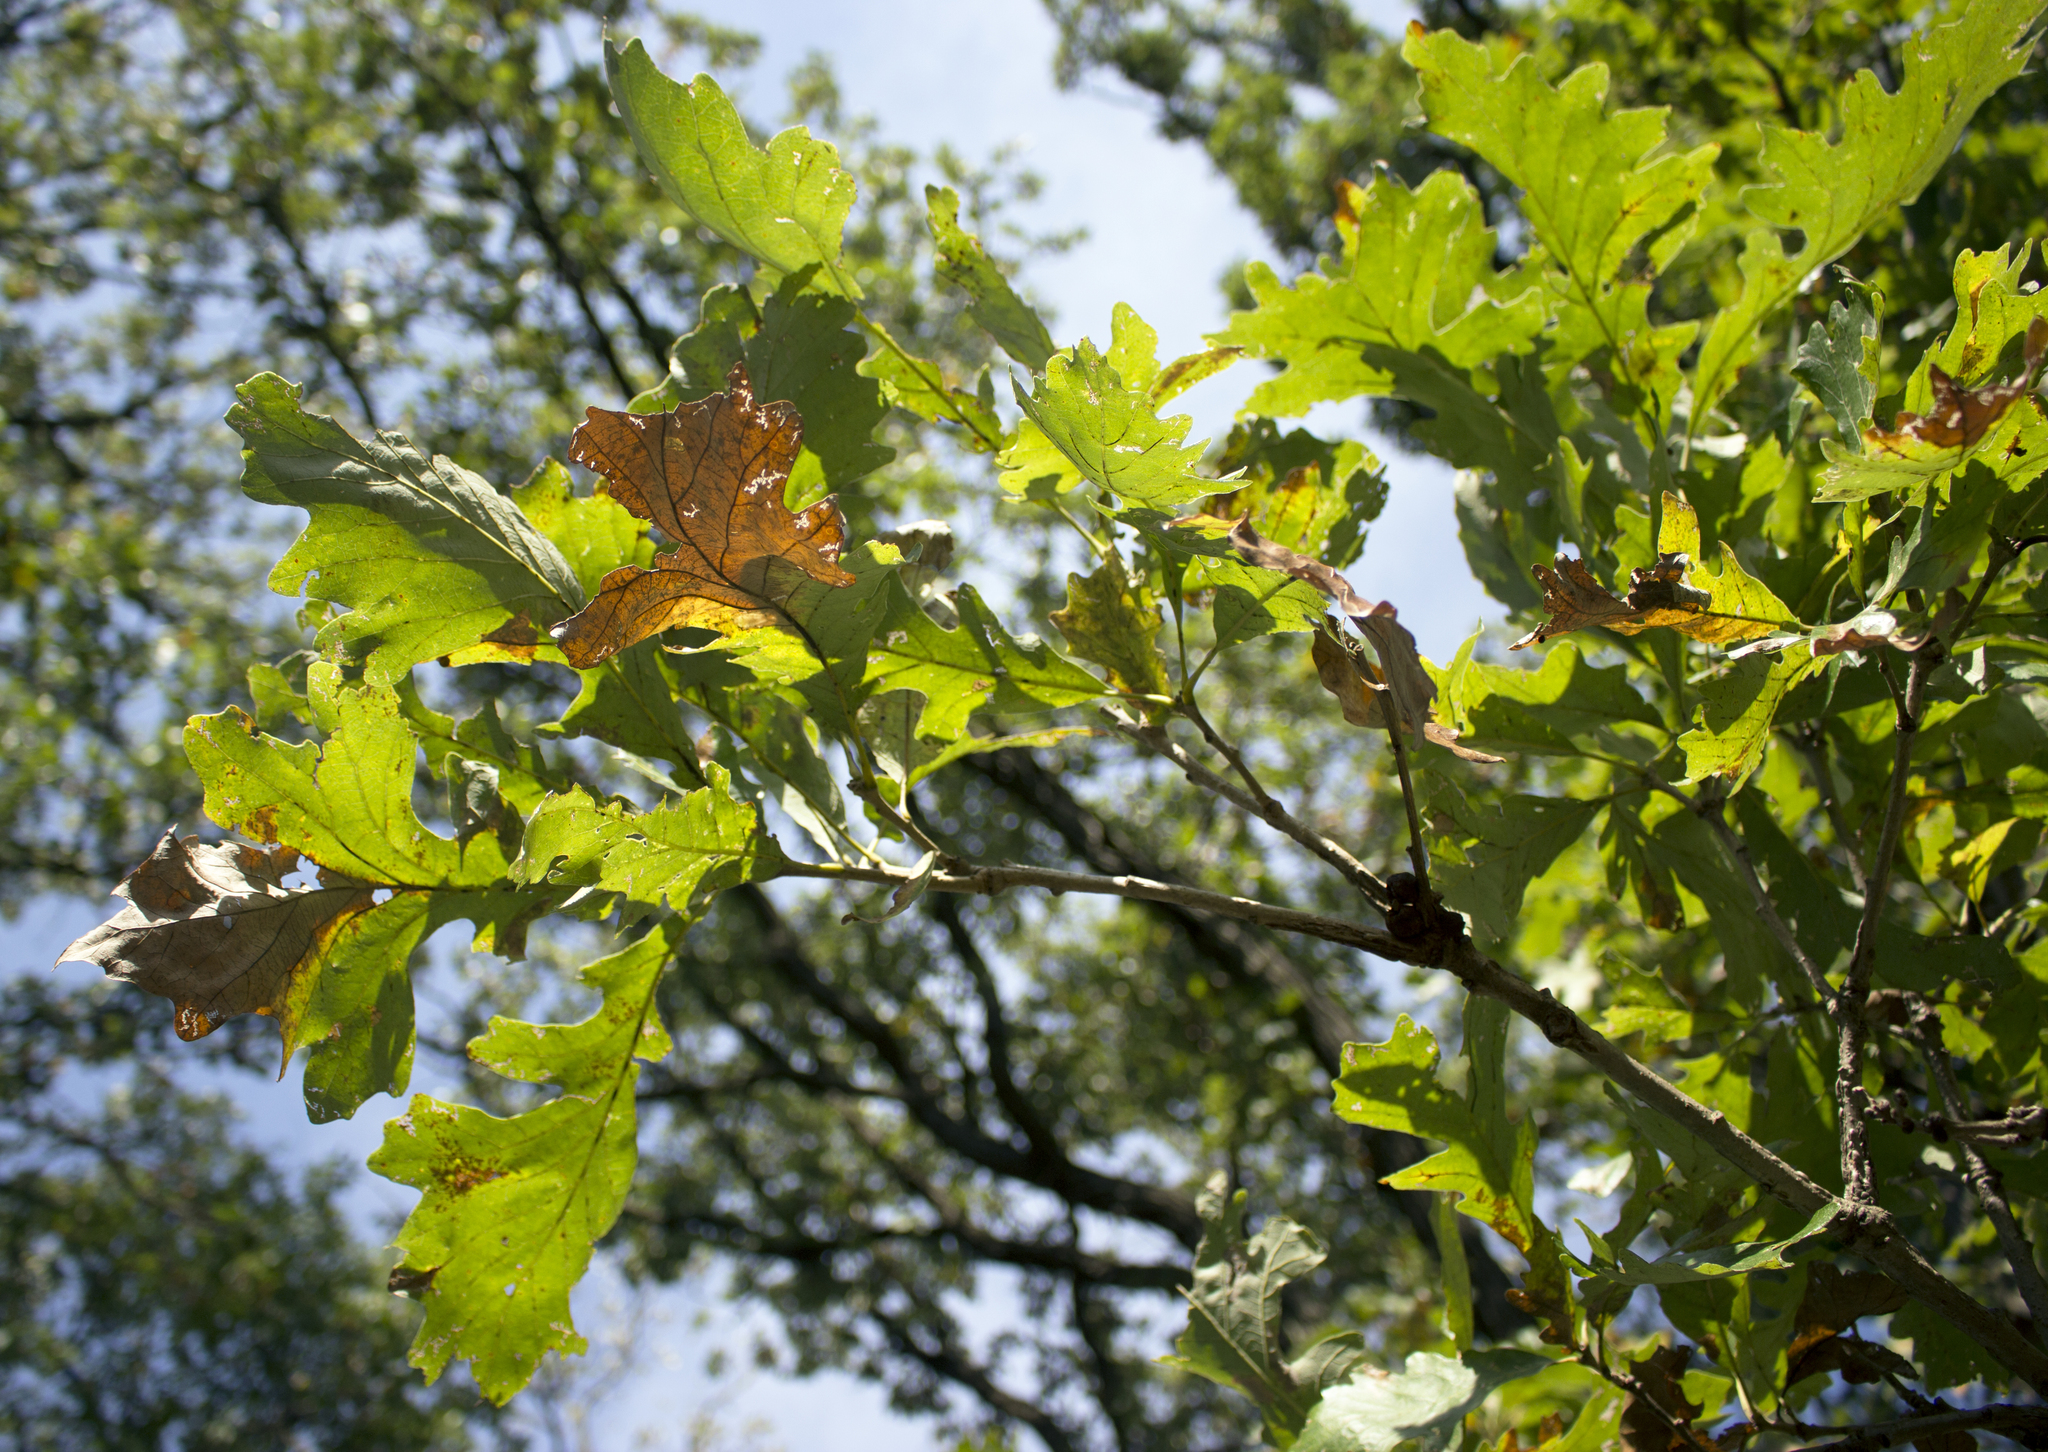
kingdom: Plantae
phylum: Tracheophyta
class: Magnoliopsida
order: Fagales
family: Fagaceae
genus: Quercus
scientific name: Quercus macrocarpa
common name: Bur oak
